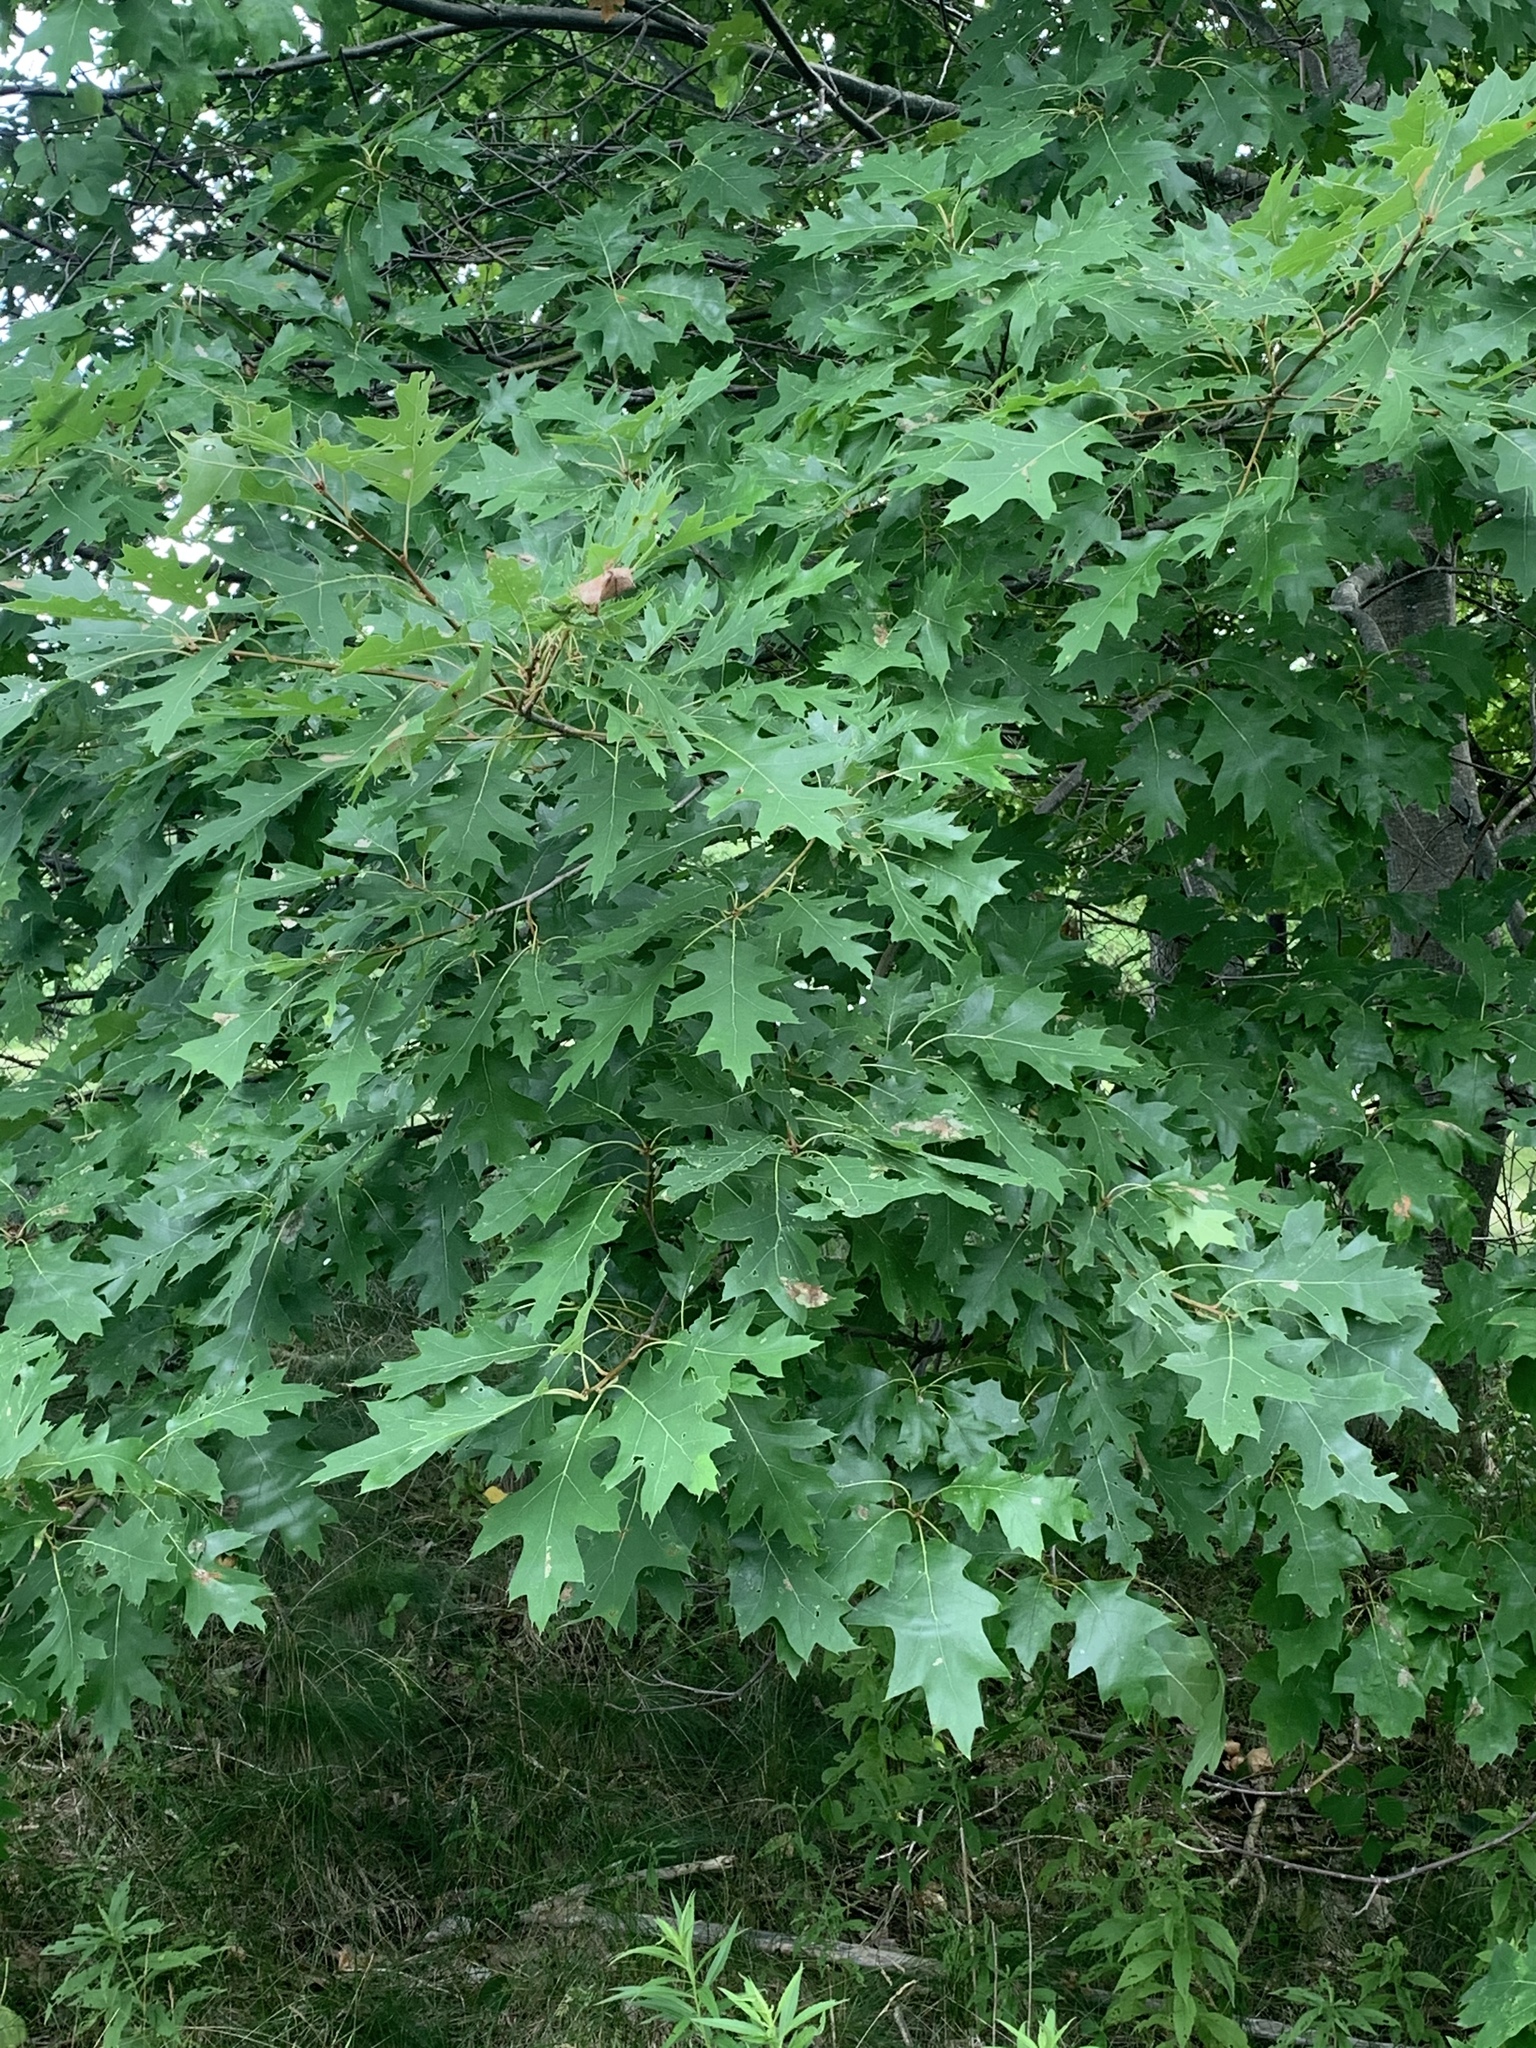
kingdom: Plantae
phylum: Tracheophyta
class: Magnoliopsida
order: Fagales
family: Fagaceae
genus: Quercus
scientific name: Quercus rubra
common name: Red oak
